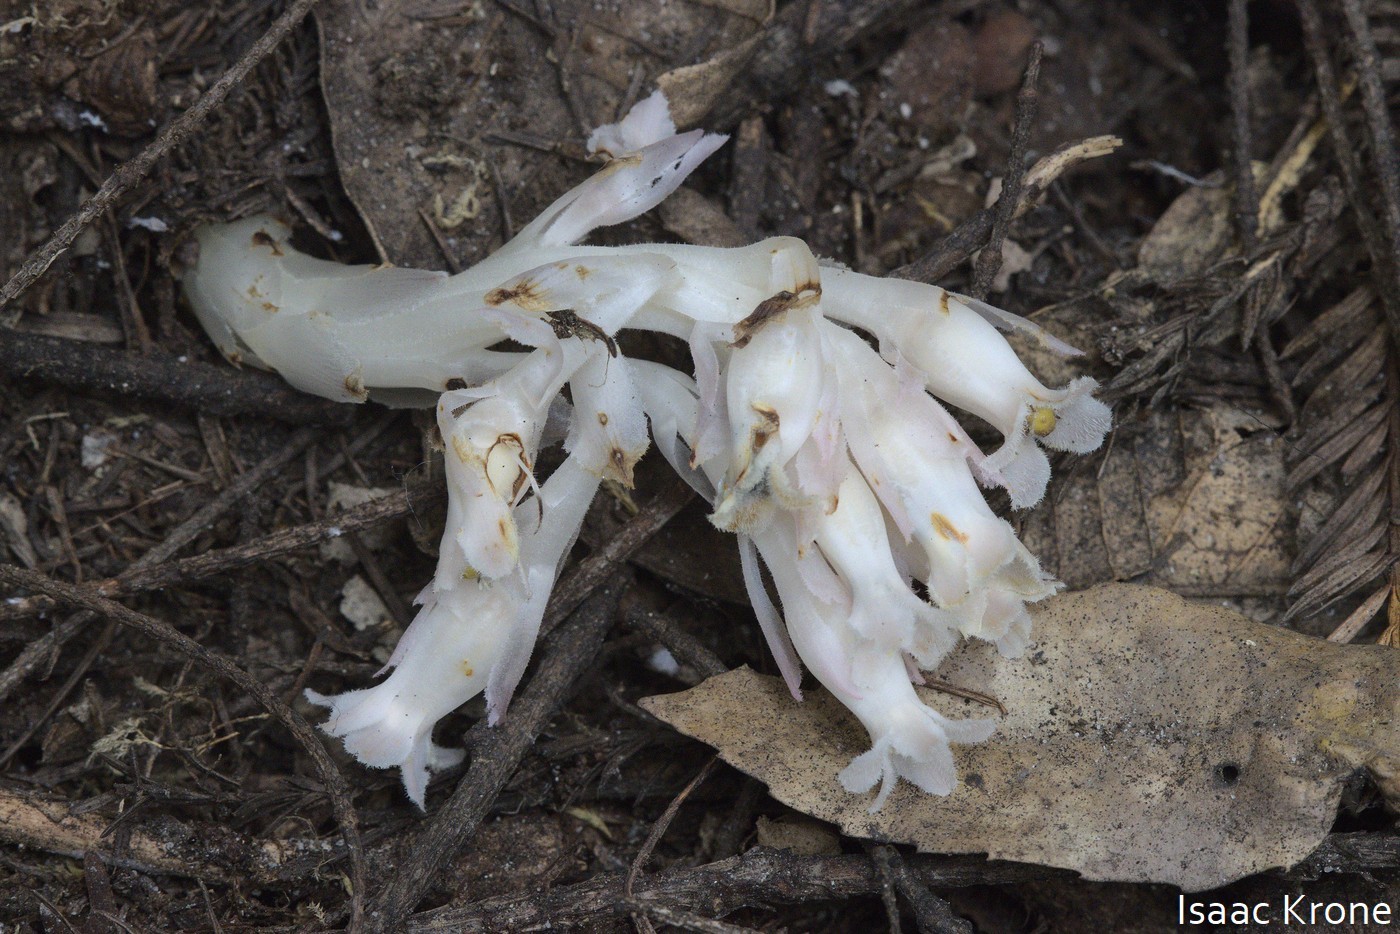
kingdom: Plantae
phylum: Tracheophyta
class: Magnoliopsida
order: Ericales
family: Ericaceae
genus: Pityopus
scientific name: Pityopus californica
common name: California pinefoot
